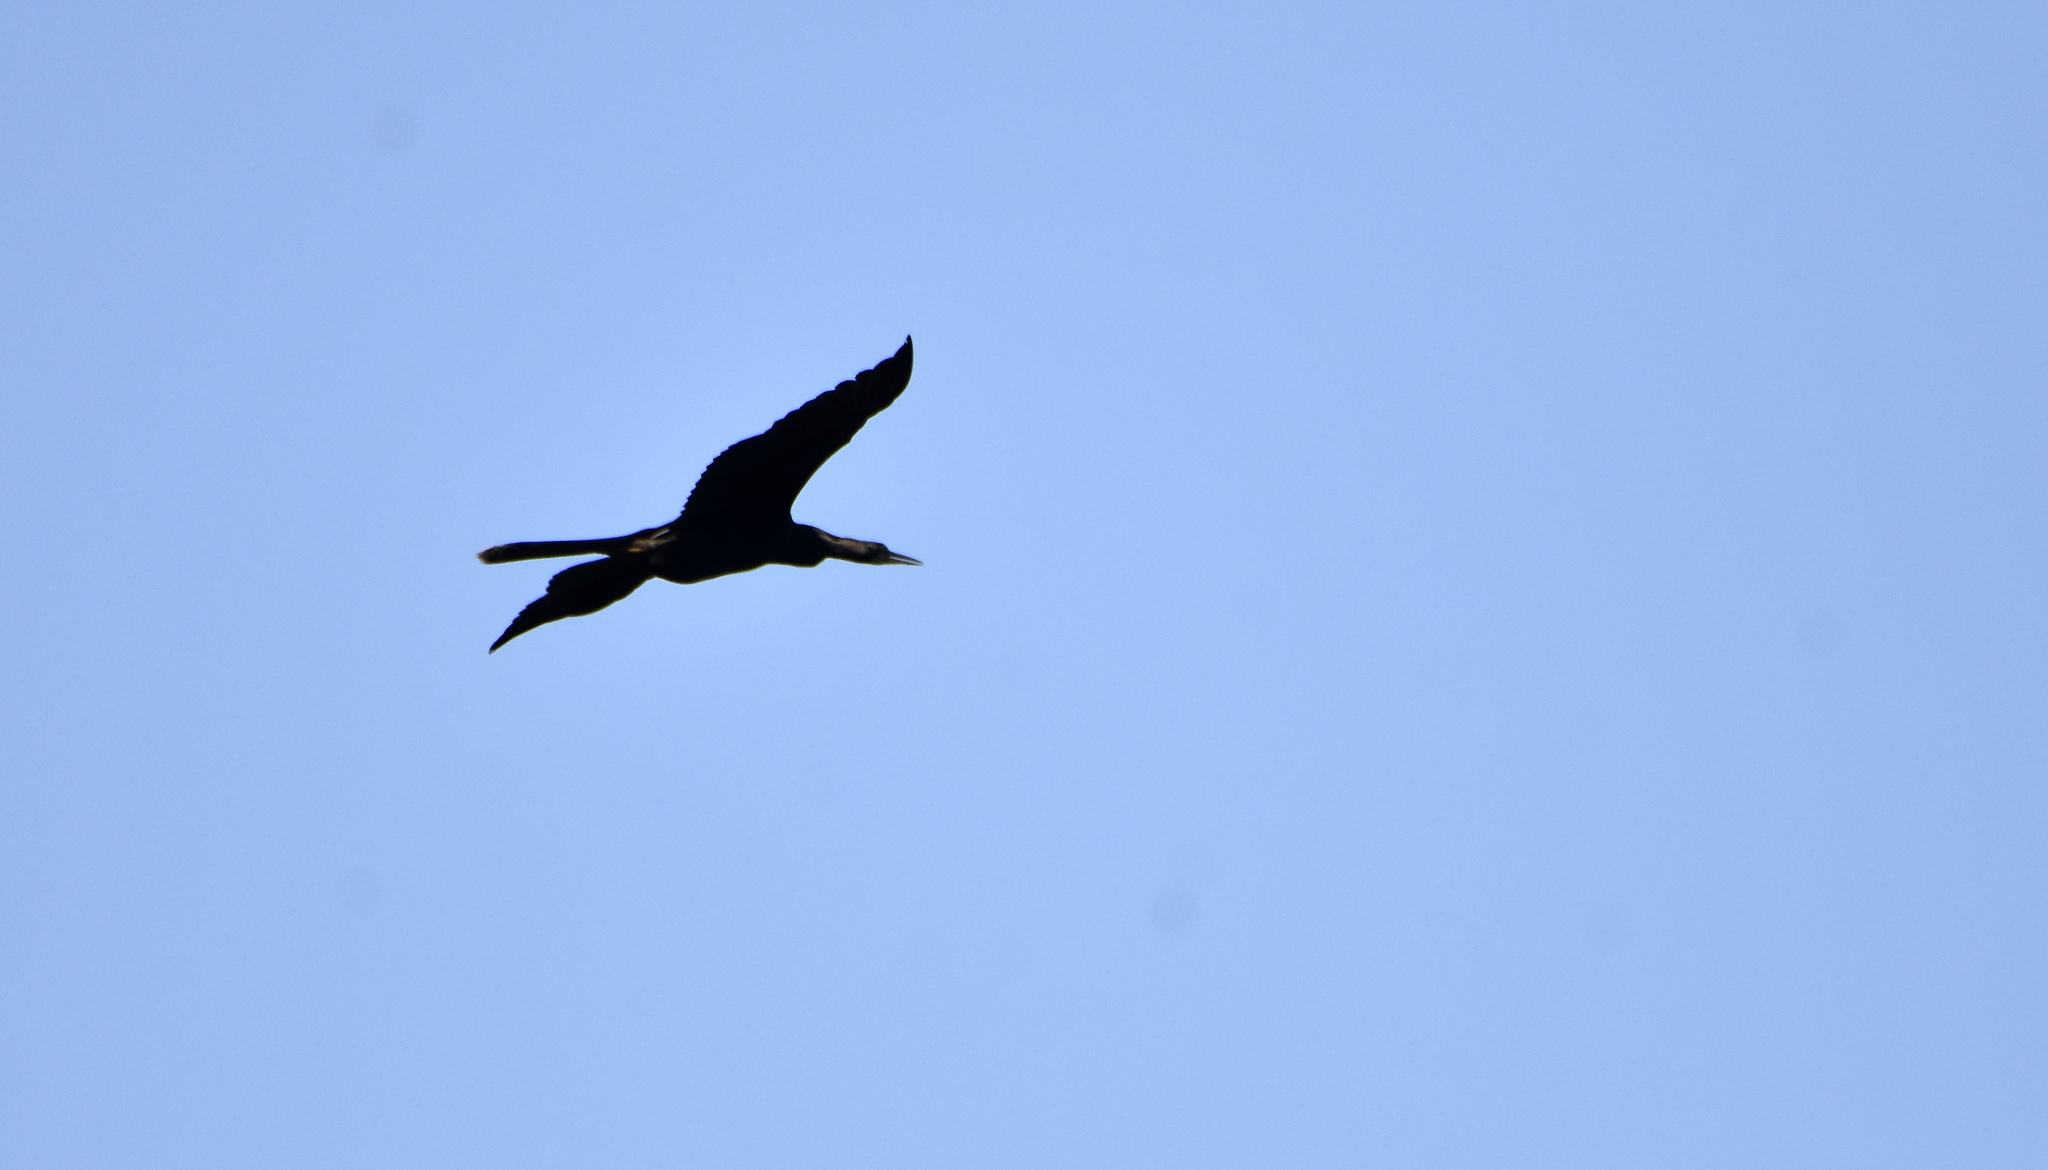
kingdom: Animalia
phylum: Chordata
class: Aves
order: Suliformes
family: Anhingidae
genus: Anhinga
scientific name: Anhinga anhinga
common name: Anhinga
